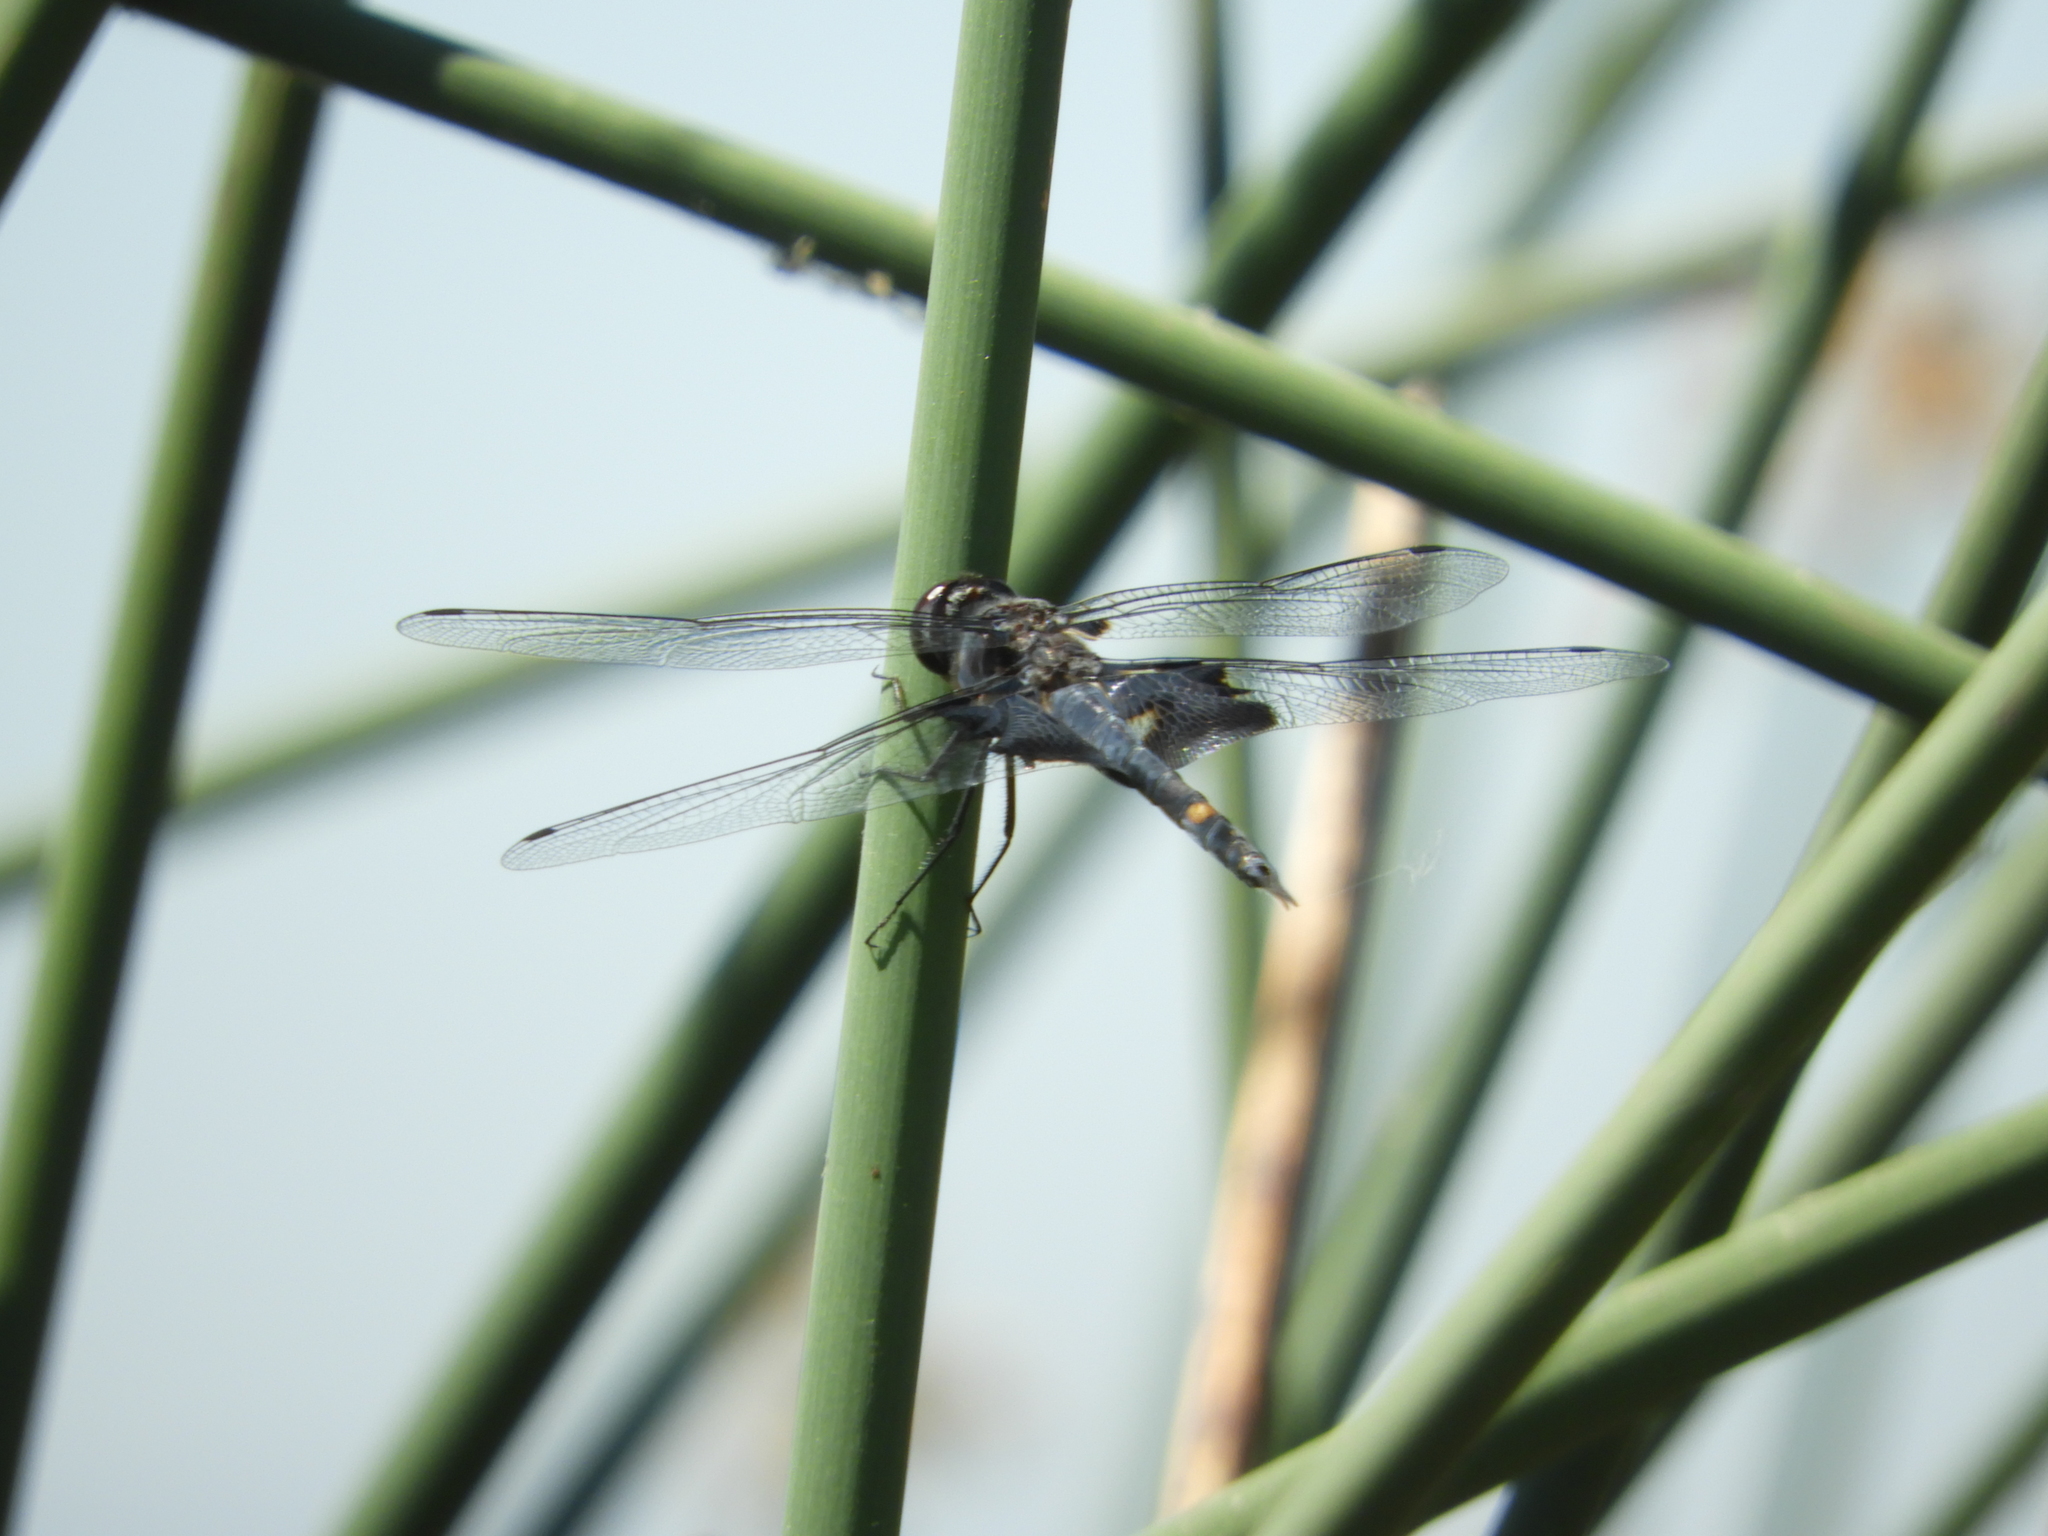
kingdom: Animalia
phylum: Arthropoda
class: Insecta
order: Odonata
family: Libellulidae
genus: Tramea
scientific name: Tramea lacerata
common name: Black saddlebags
